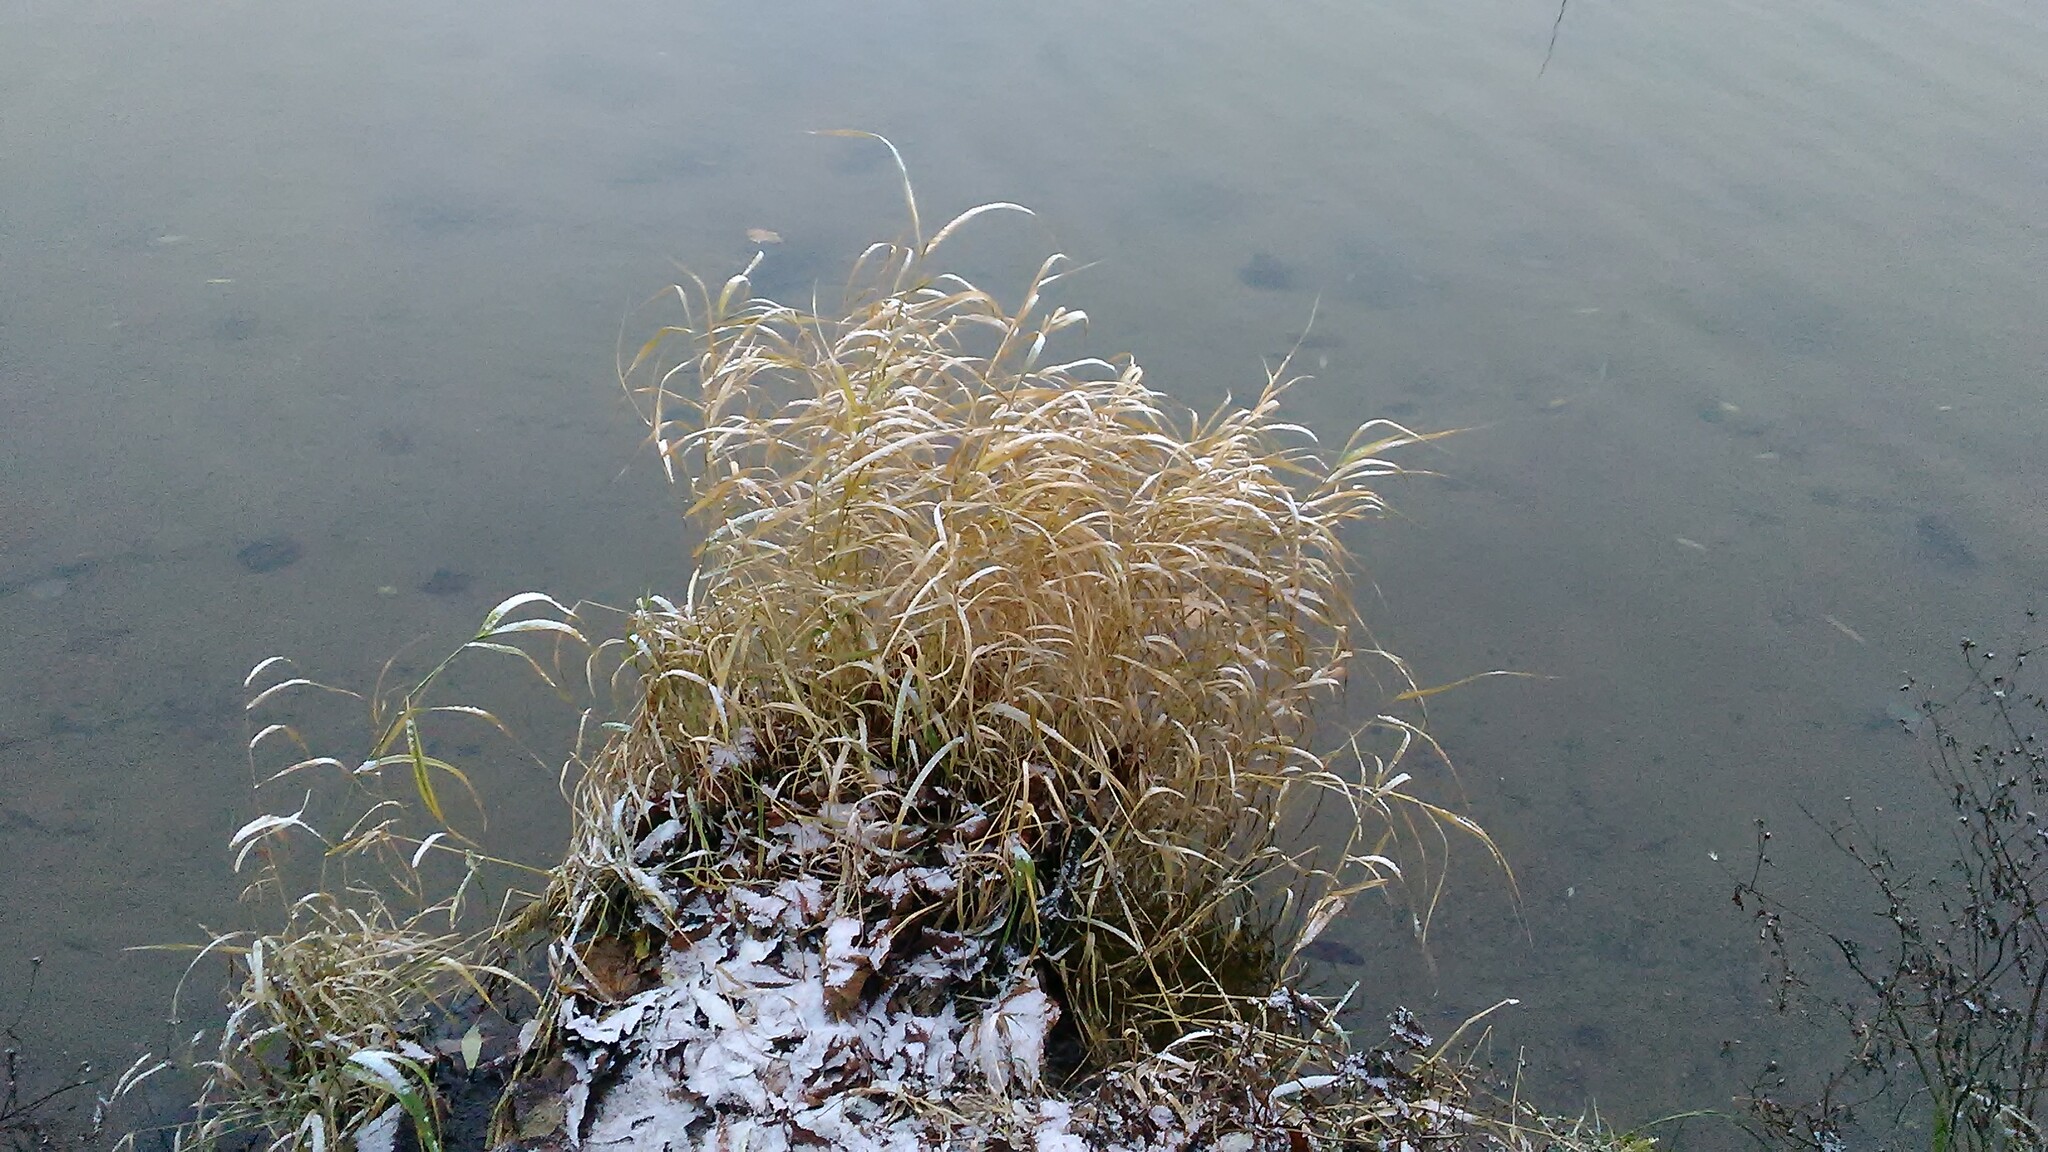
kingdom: Plantae
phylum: Tracheophyta
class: Liliopsida
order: Poales
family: Poaceae
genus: Phalaris
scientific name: Phalaris arundinacea
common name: Reed canary-grass
